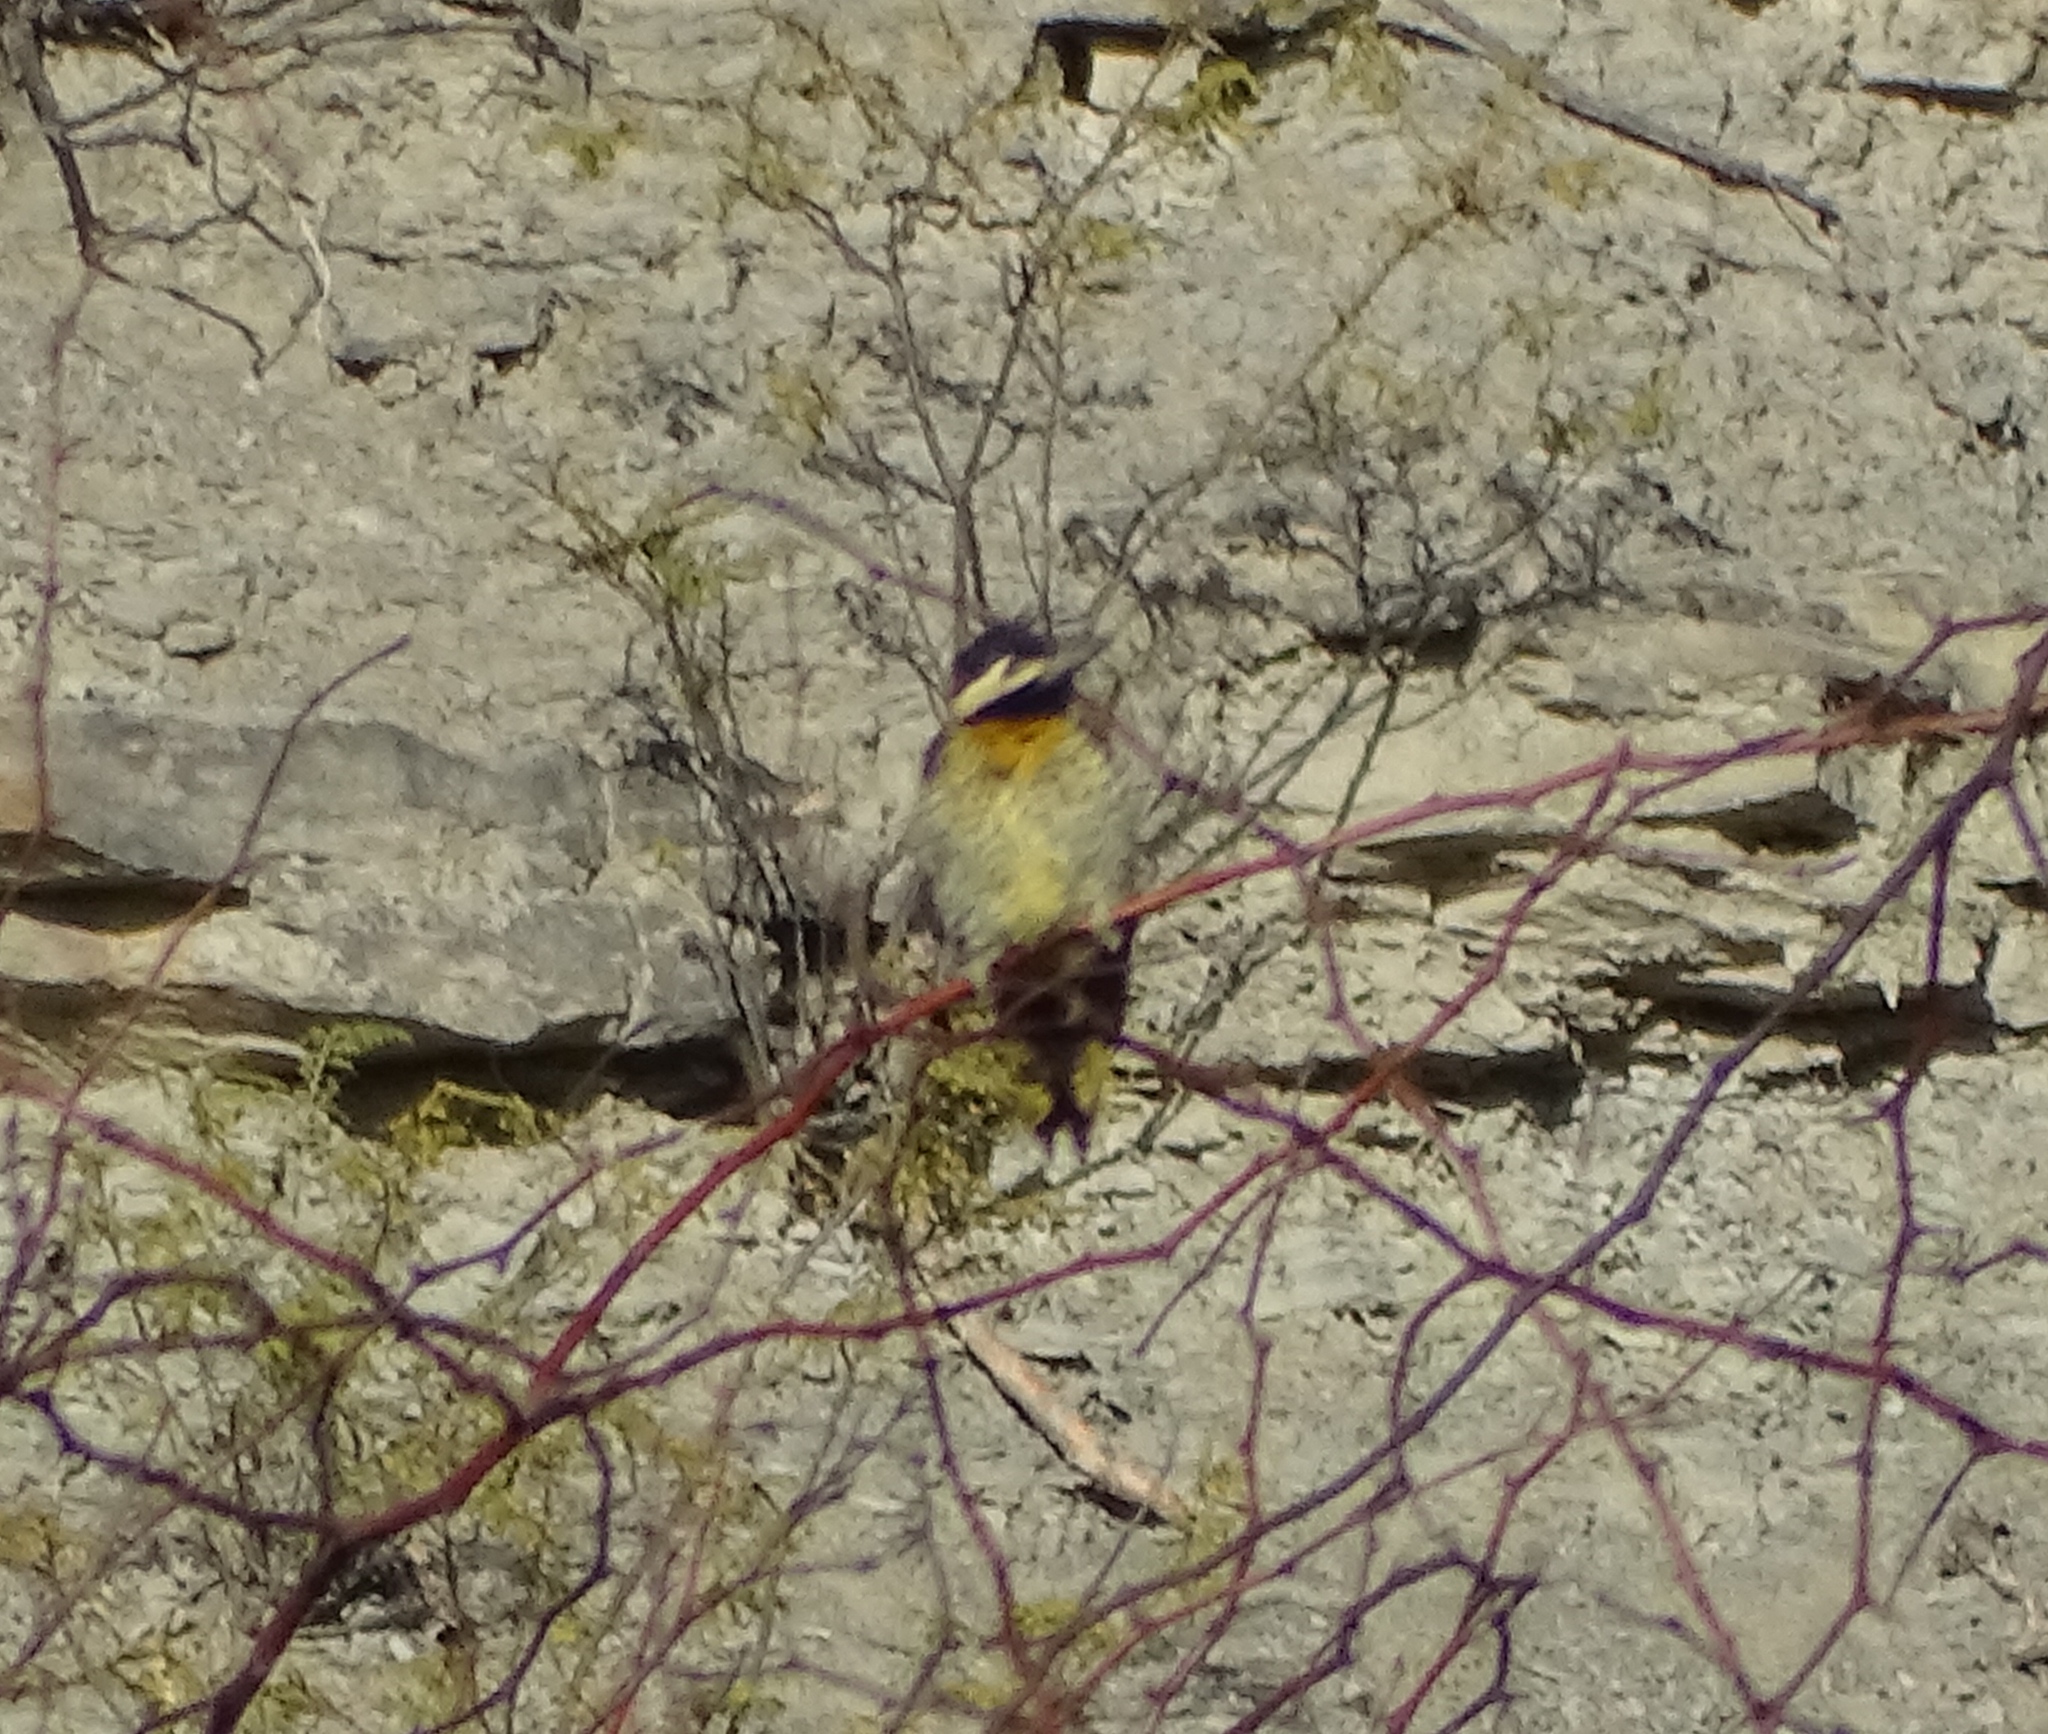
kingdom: Animalia
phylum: Chordata
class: Aves
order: Piciformes
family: Picidae
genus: Colaptes
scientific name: Colaptes melanochloros
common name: Green-barred woodpecker
